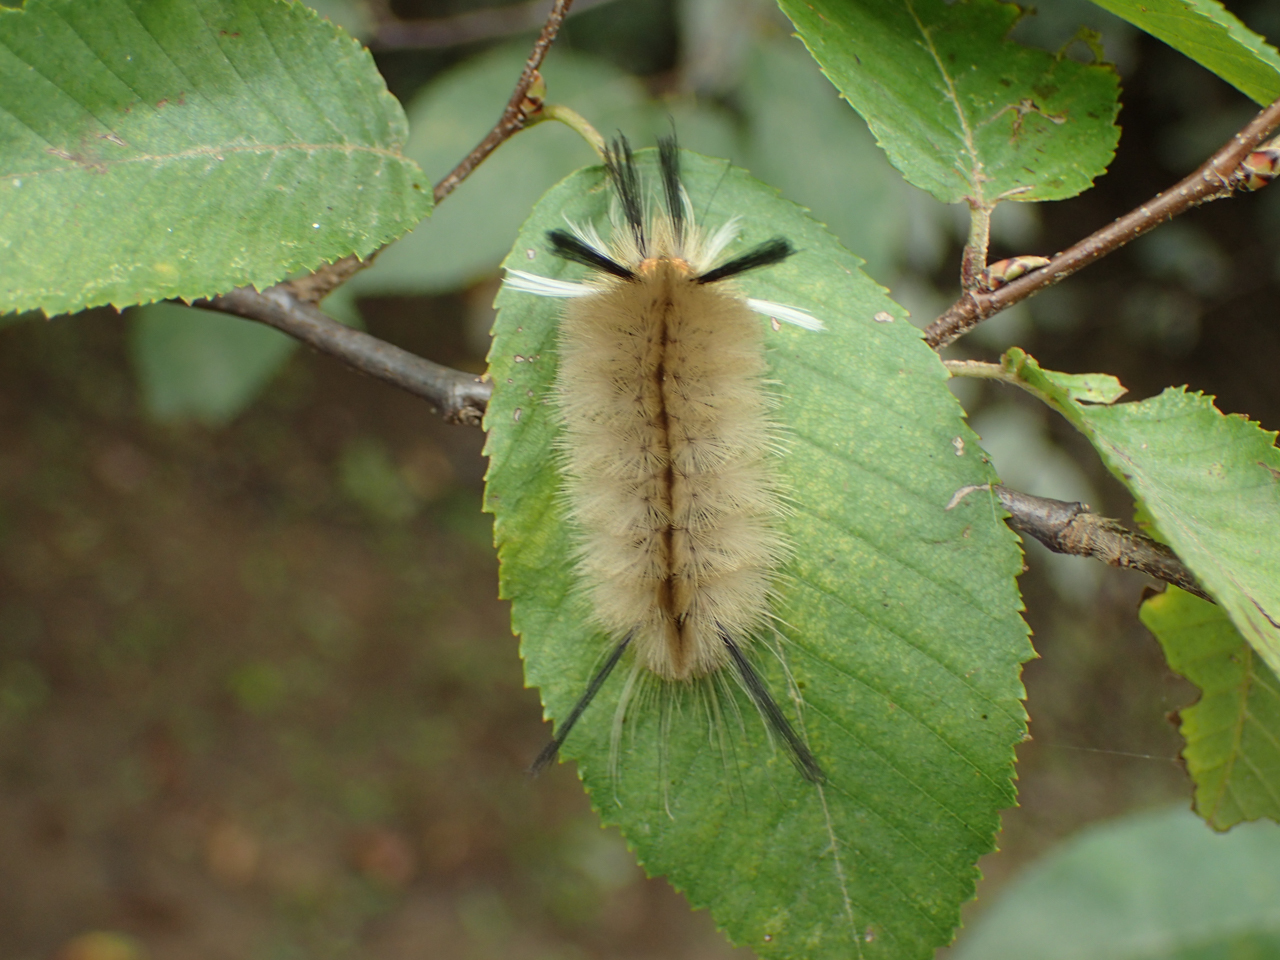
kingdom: Animalia
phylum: Arthropoda
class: Insecta
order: Lepidoptera
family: Erebidae
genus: Halysidota
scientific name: Halysidota tessellaris
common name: Banded tussock moth
